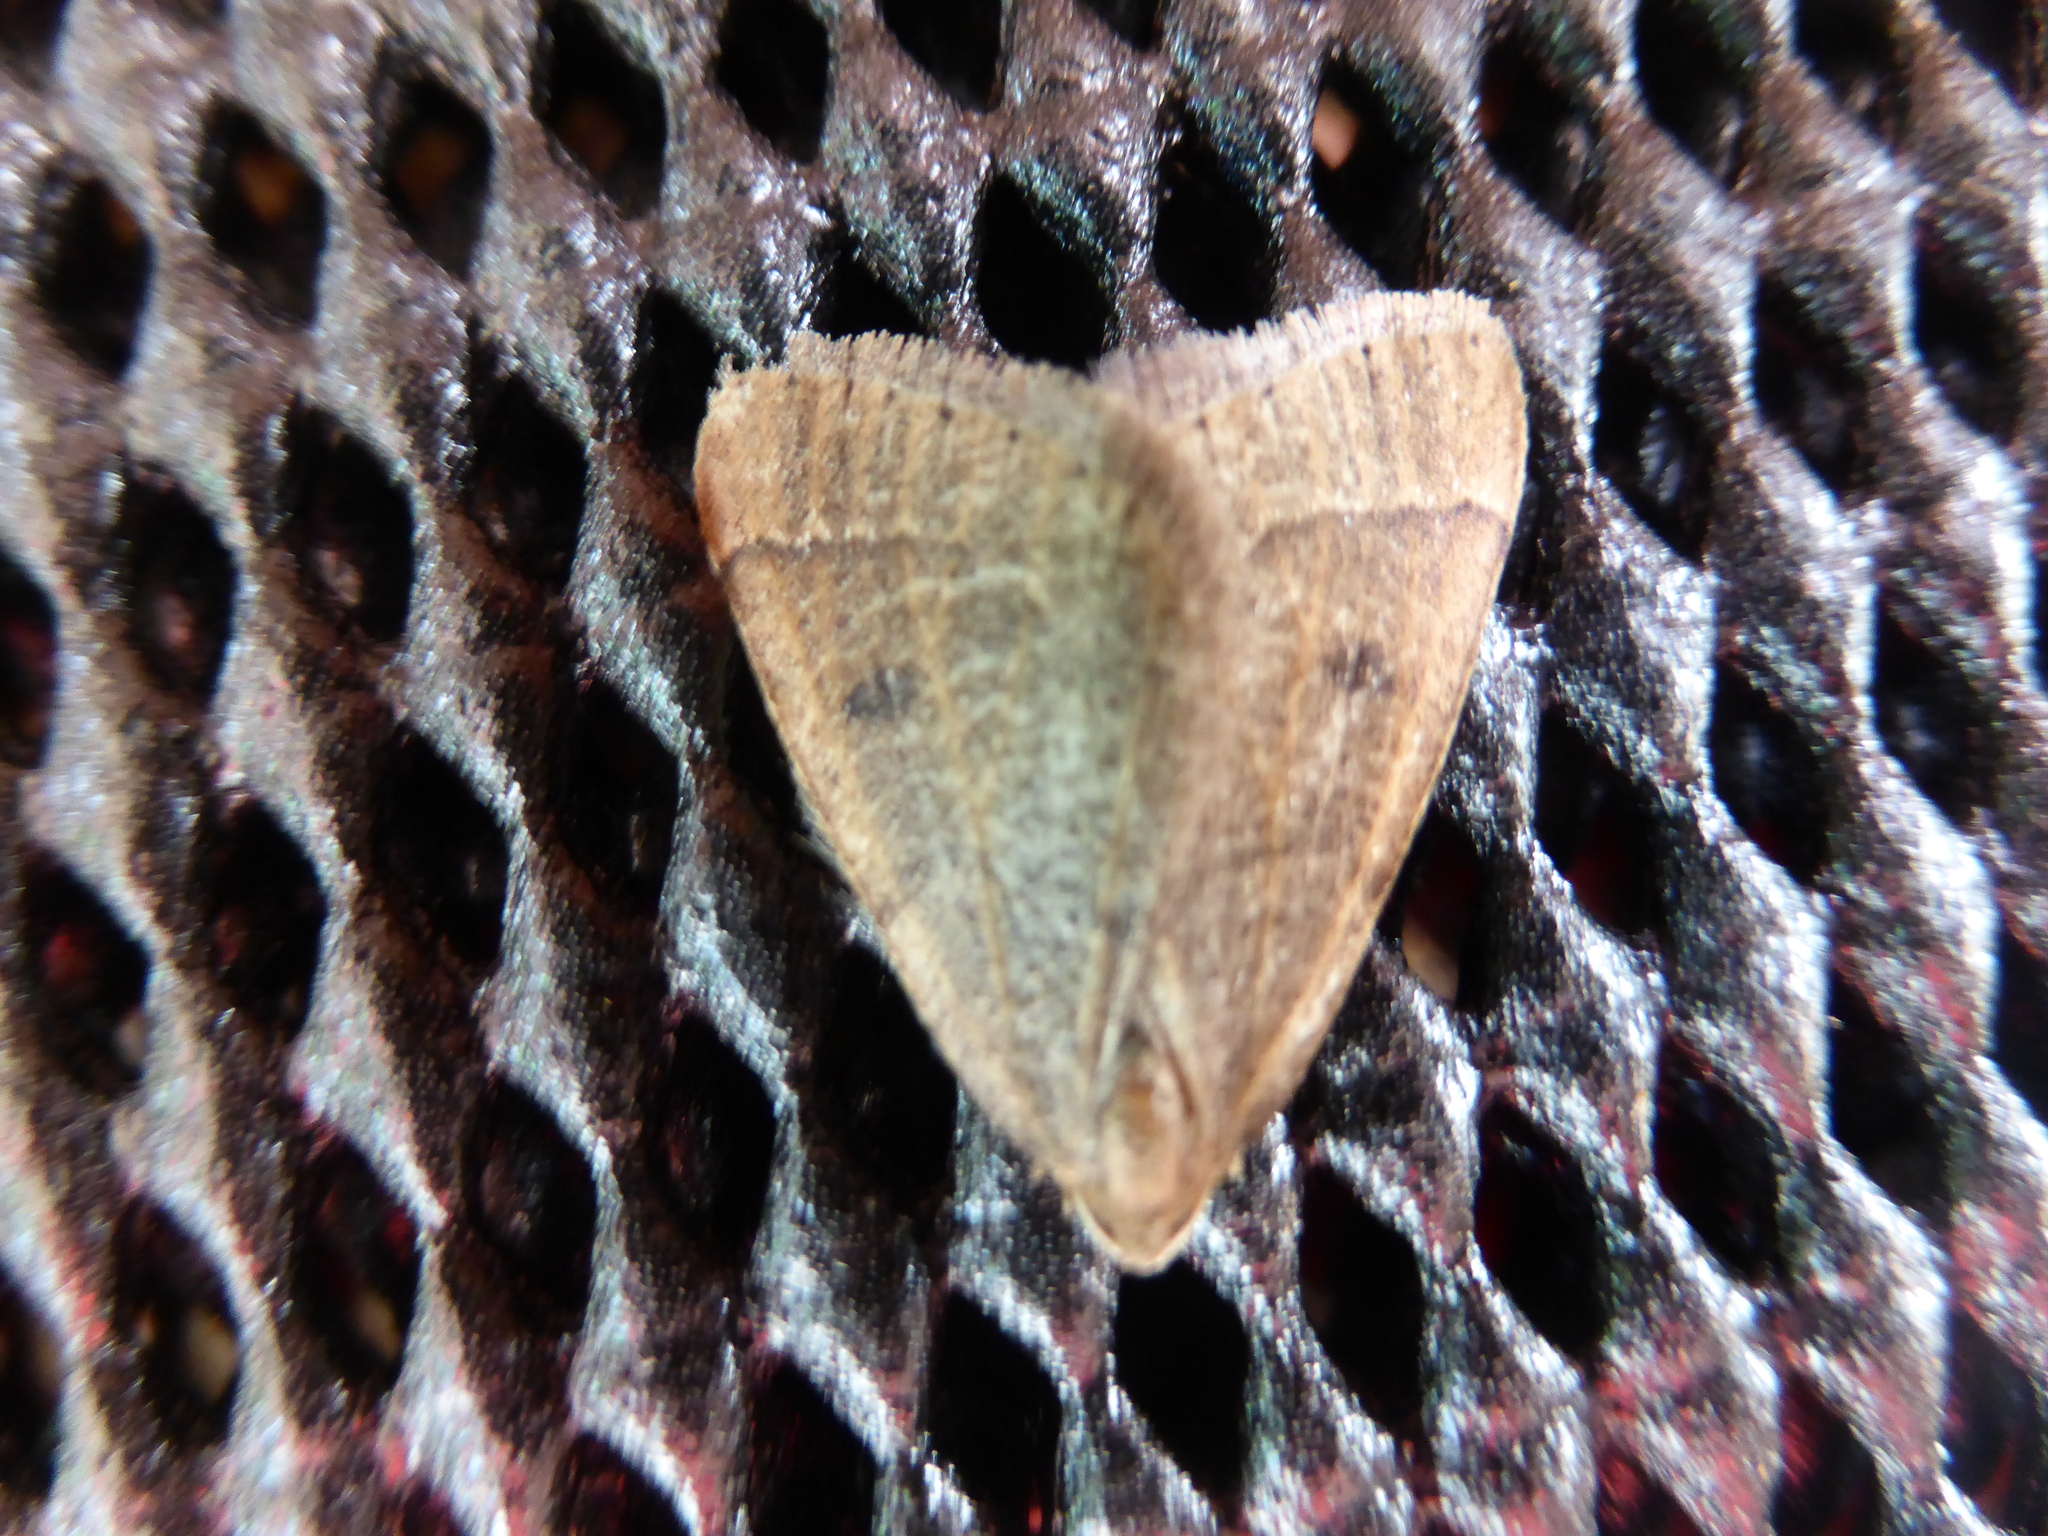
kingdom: Animalia
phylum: Arthropoda
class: Insecta
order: Lepidoptera
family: Geometridae
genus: Theria
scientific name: Theria primaria
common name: Early moth
